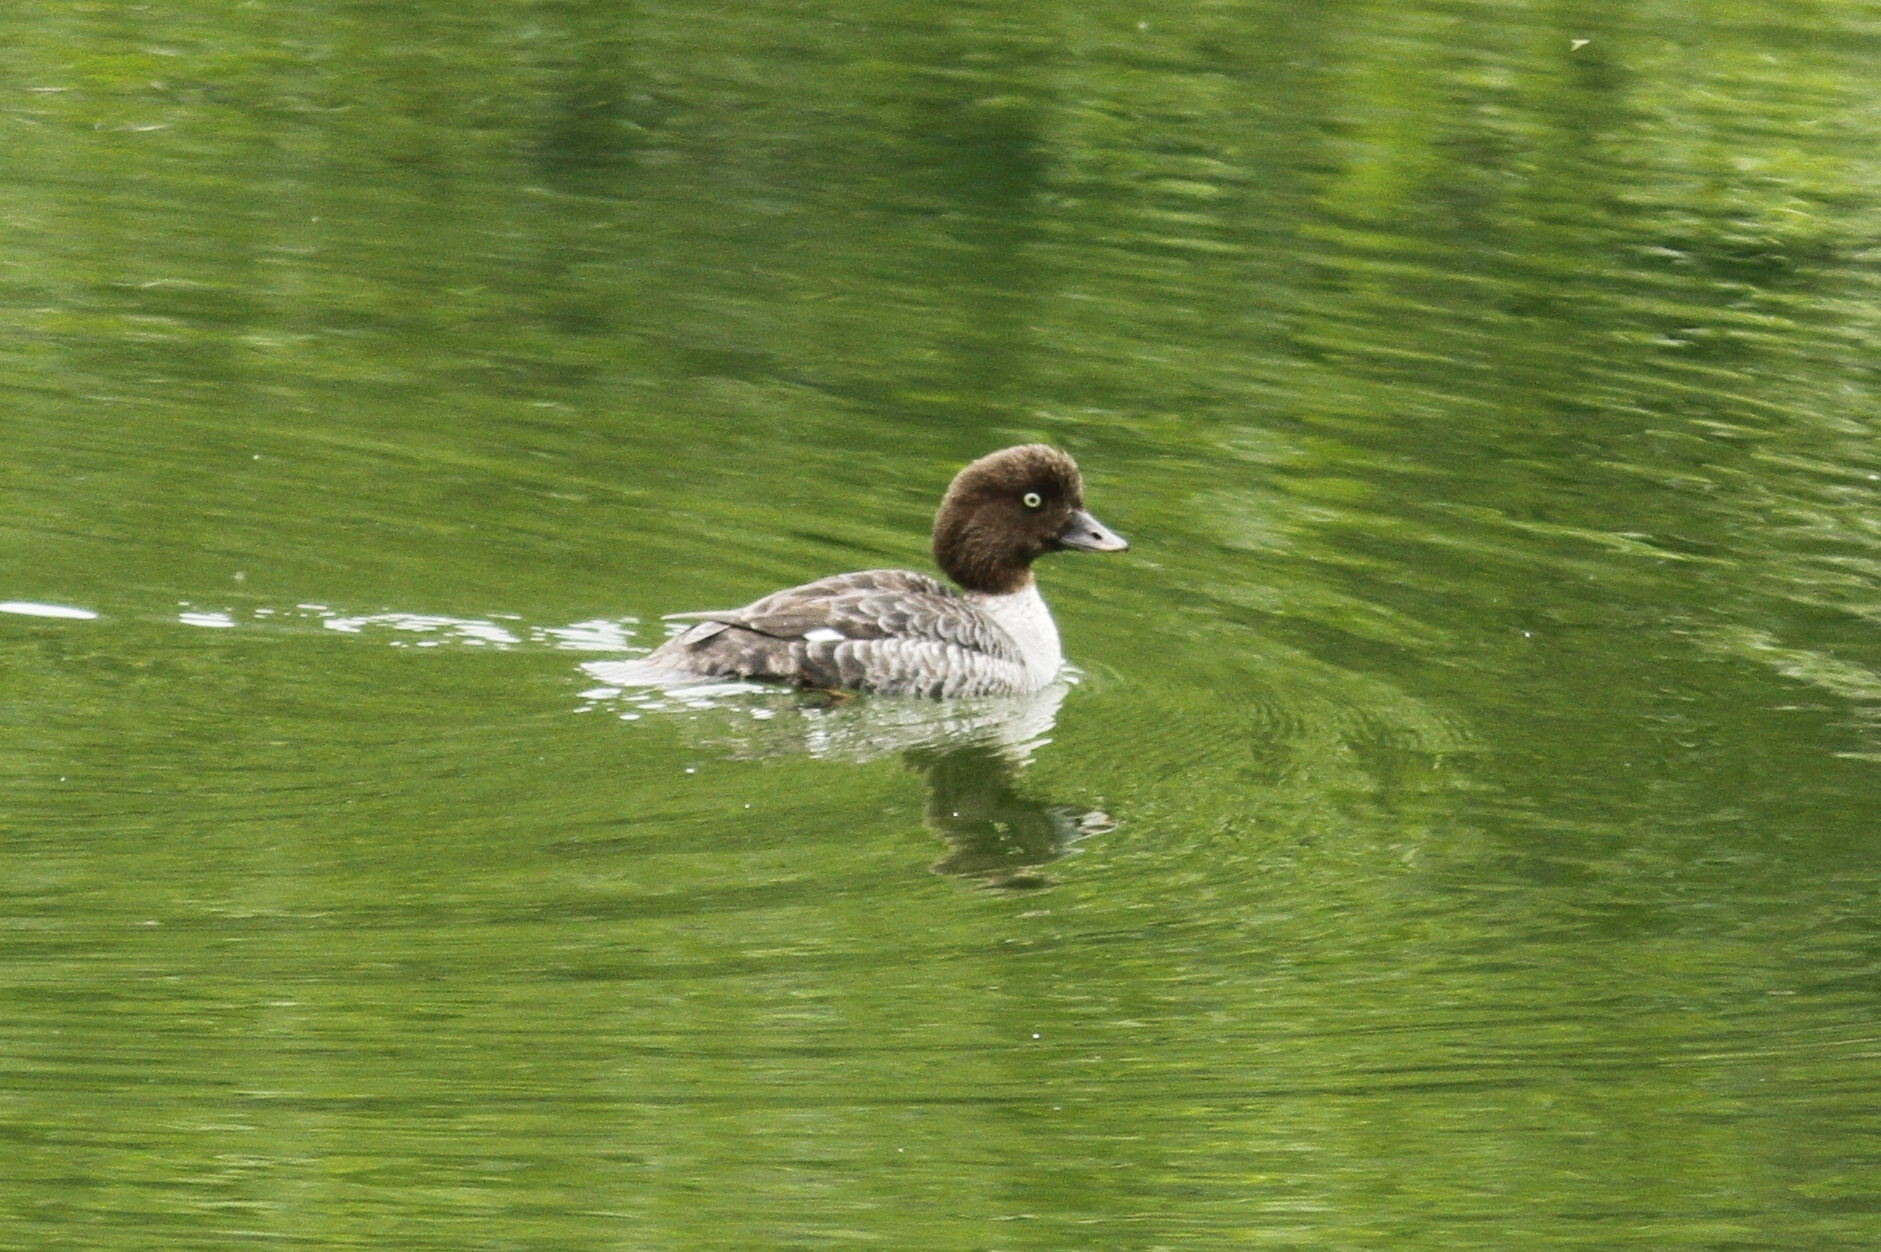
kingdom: Animalia
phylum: Chordata
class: Aves
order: Anseriformes
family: Anatidae
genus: Bucephala
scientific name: Bucephala islandica
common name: Barrow's goldeneye
